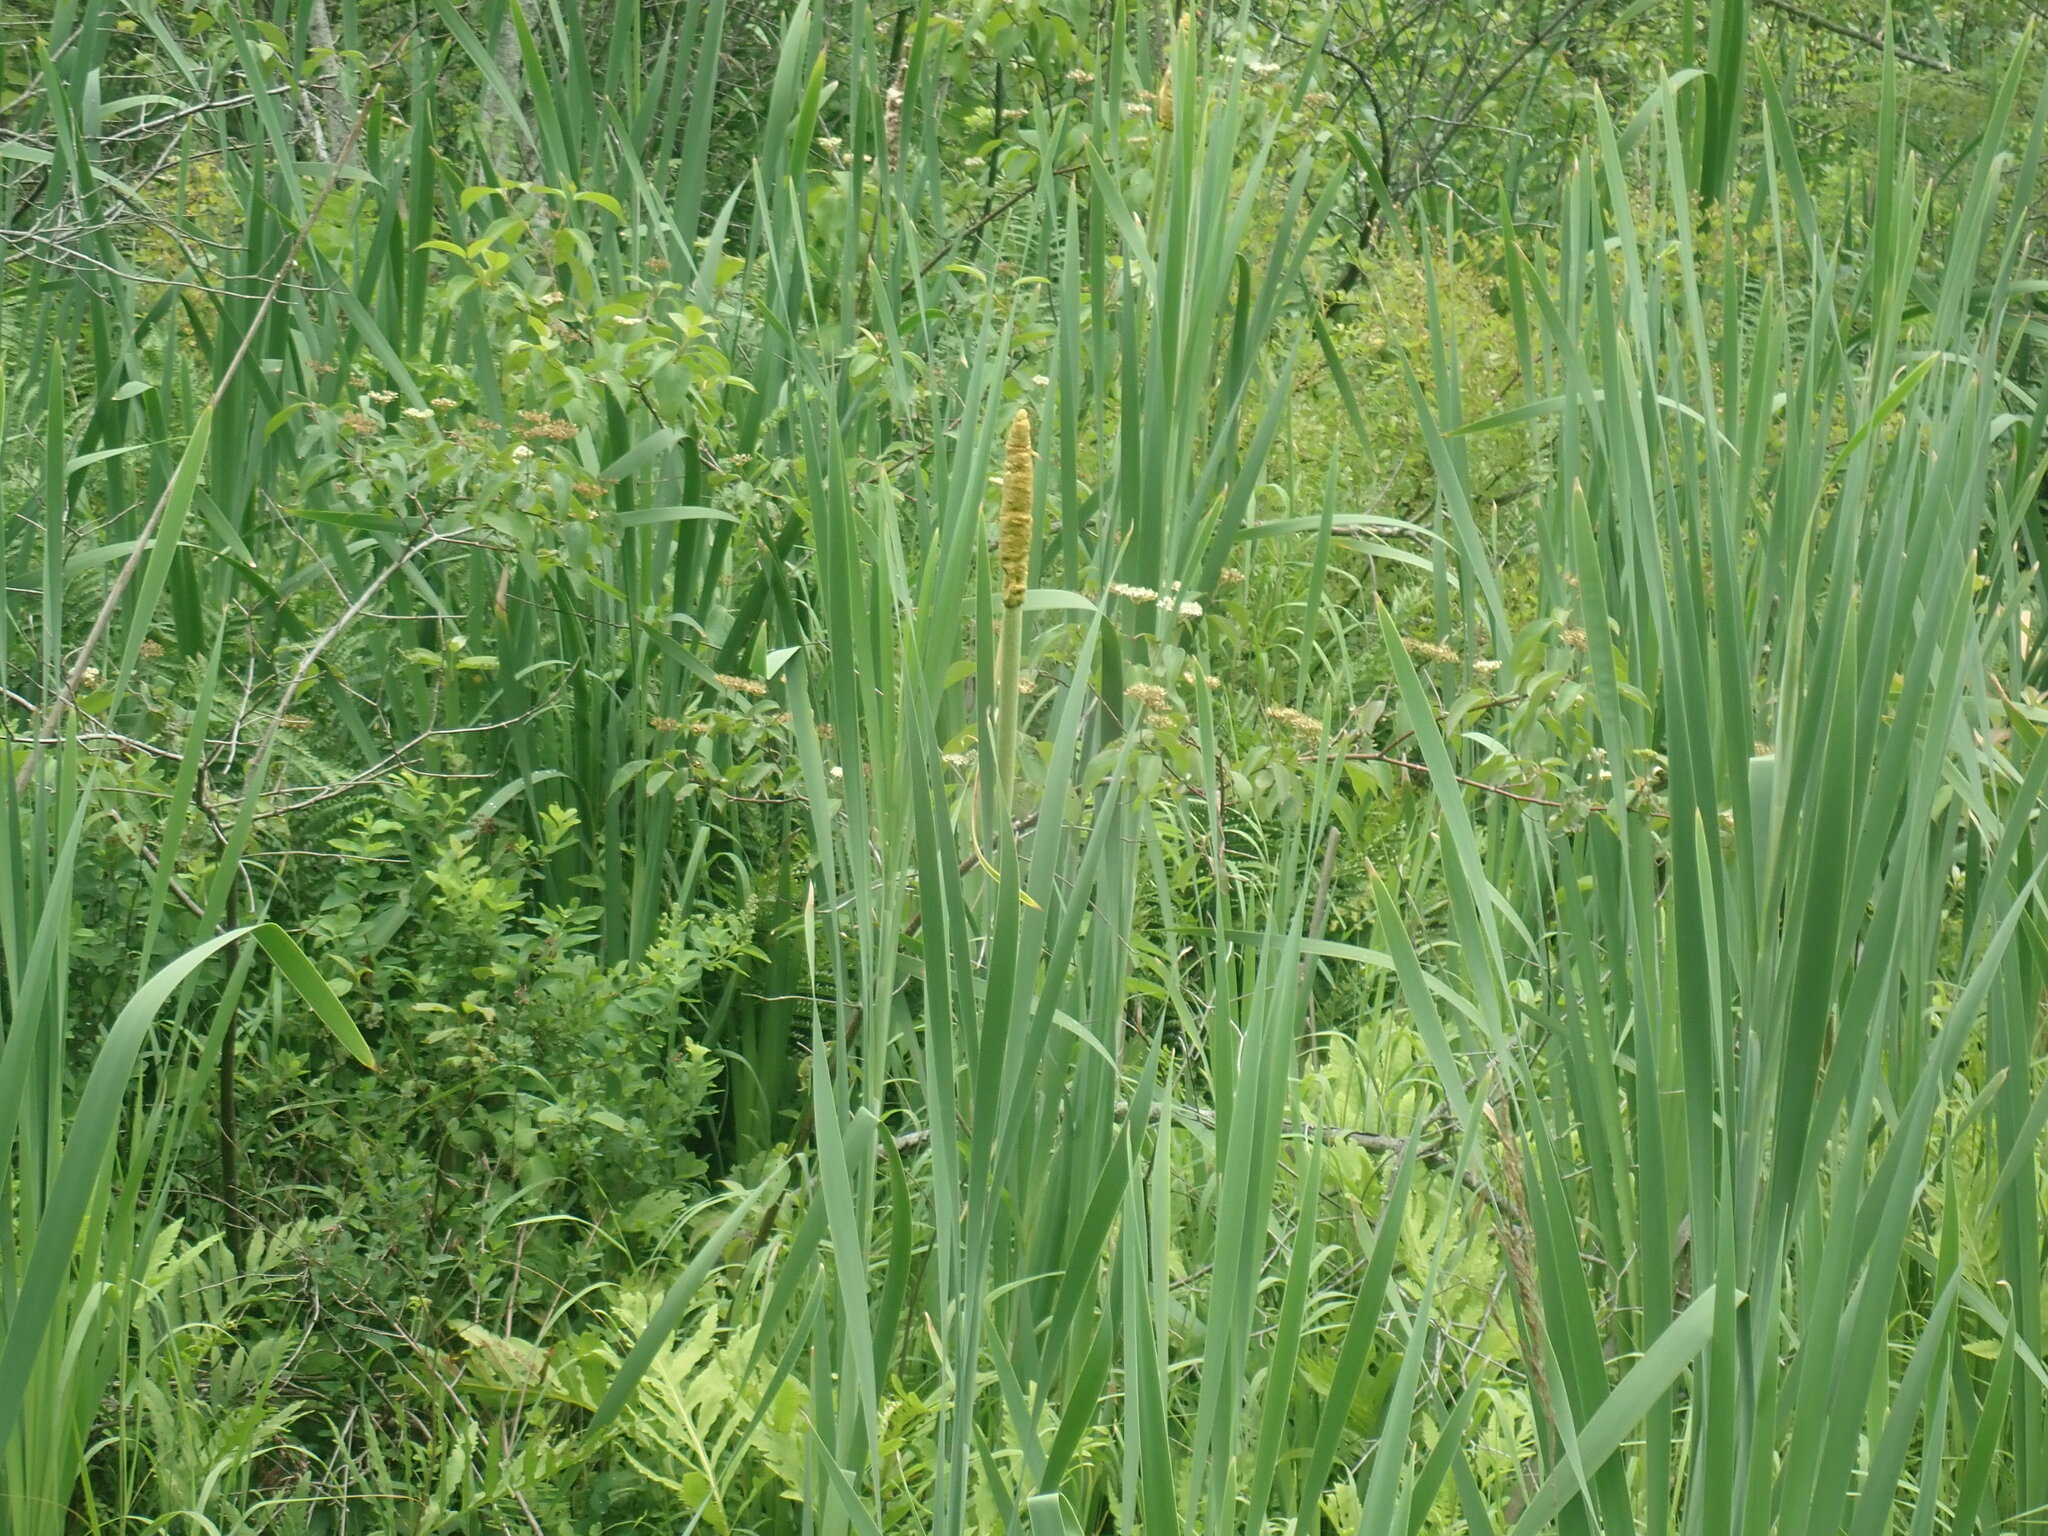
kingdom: Plantae
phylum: Tracheophyta
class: Liliopsida
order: Poales
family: Typhaceae
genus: Typha
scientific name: Typha latifolia
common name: Broadleaf cattail
